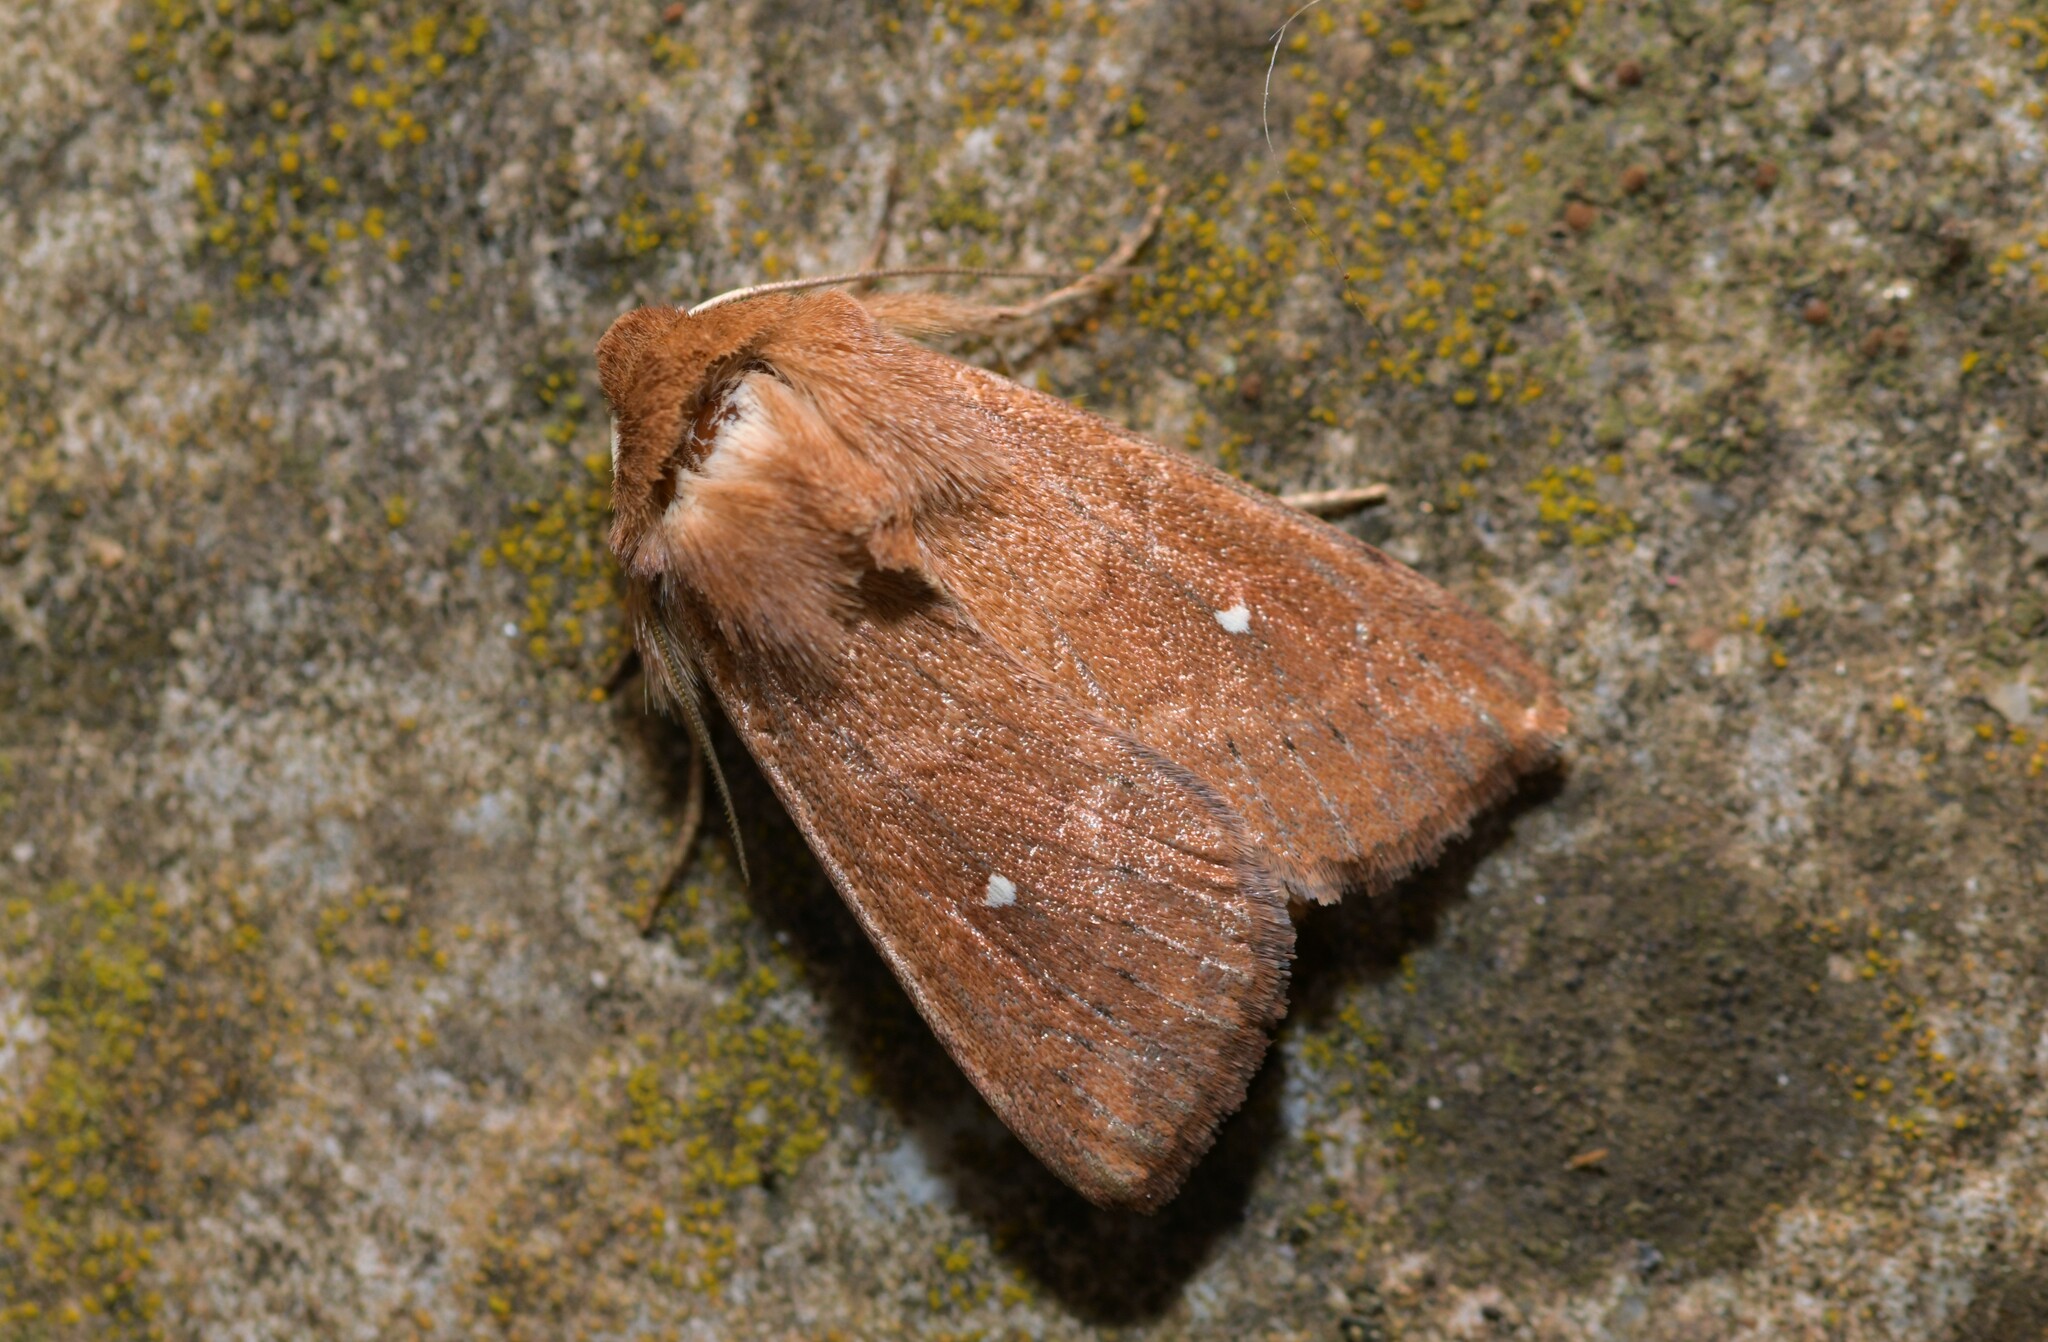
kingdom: Animalia
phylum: Arthropoda
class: Insecta
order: Lepidoptera
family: Noctuidae
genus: Mythimna
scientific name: Mythimna albipuncta
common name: White-point
